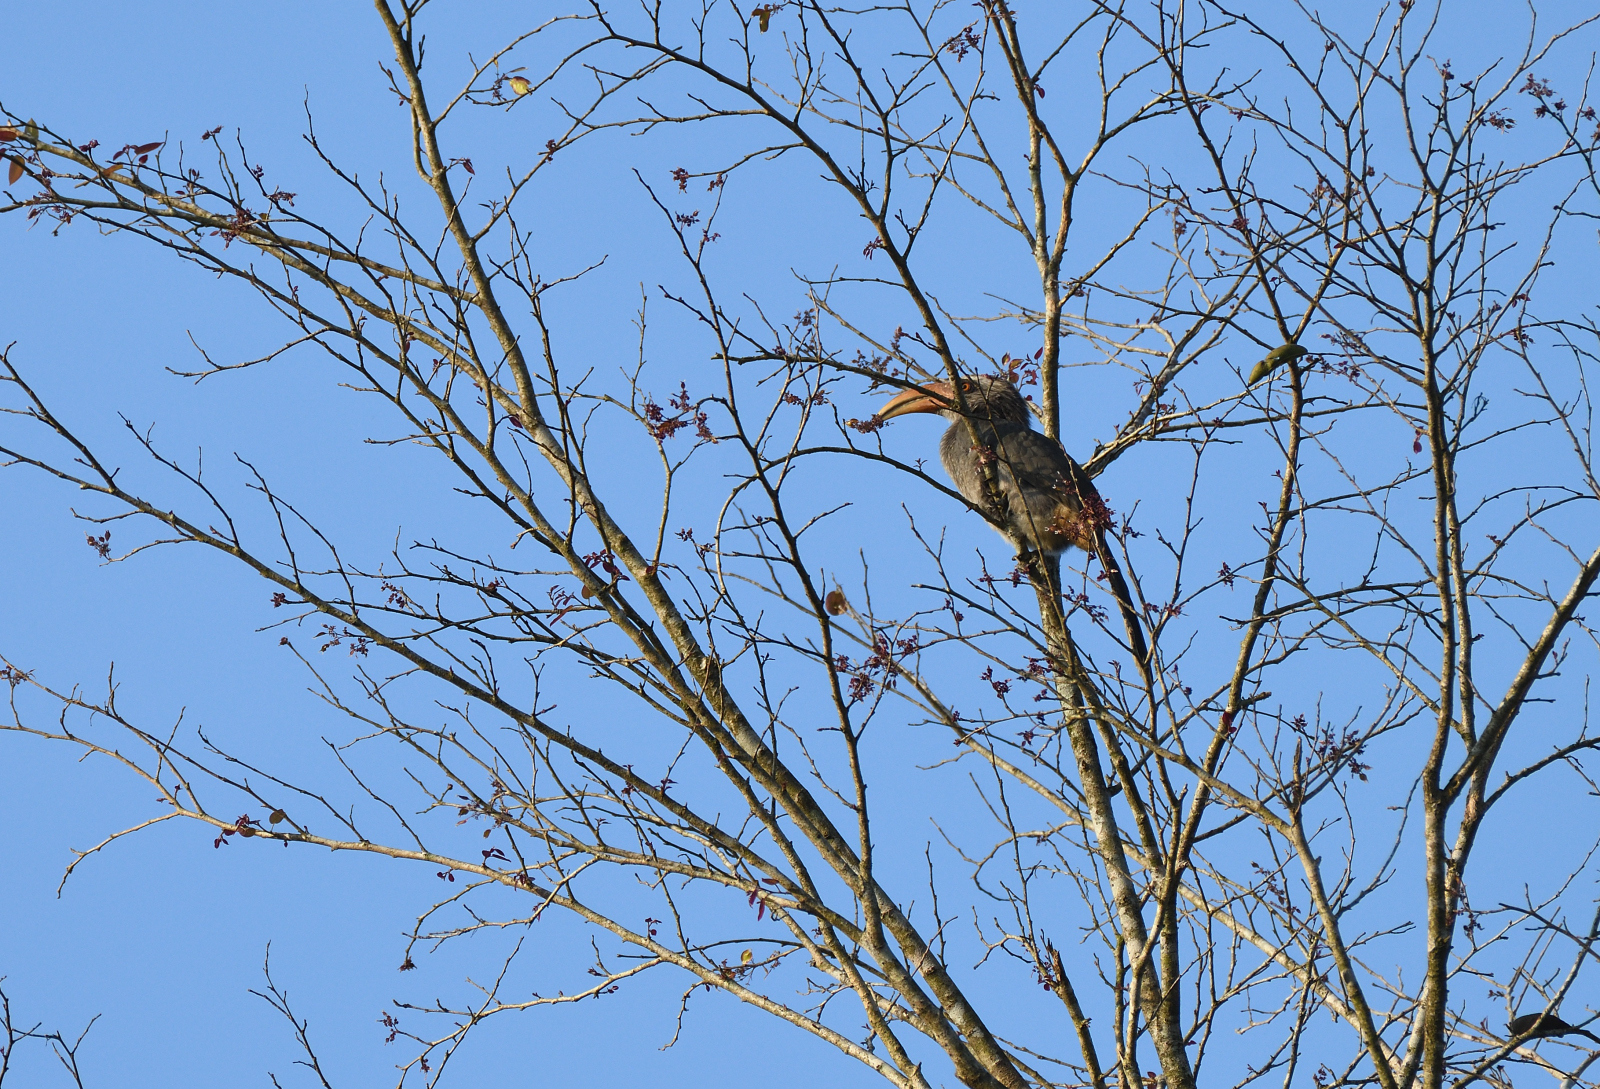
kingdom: Animalia
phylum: Chordata
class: Aves
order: Bucerotiformes
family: Bucerotidae
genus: Ocyceros
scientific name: Ocyceros griseus
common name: Malabar grey hornbill
